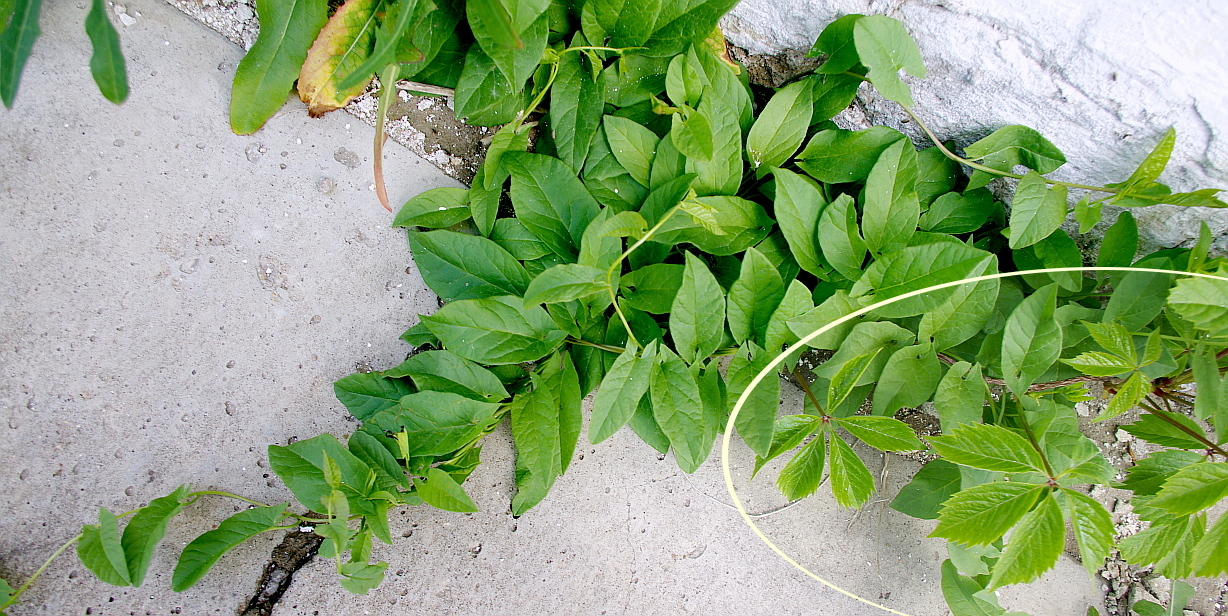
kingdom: Plantae
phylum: Tracheophyta
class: Magnoliopsida
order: Vitales
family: Vitaceae
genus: Parthenocissus
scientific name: Parthenocissus inserta
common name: False virginia-creeper
